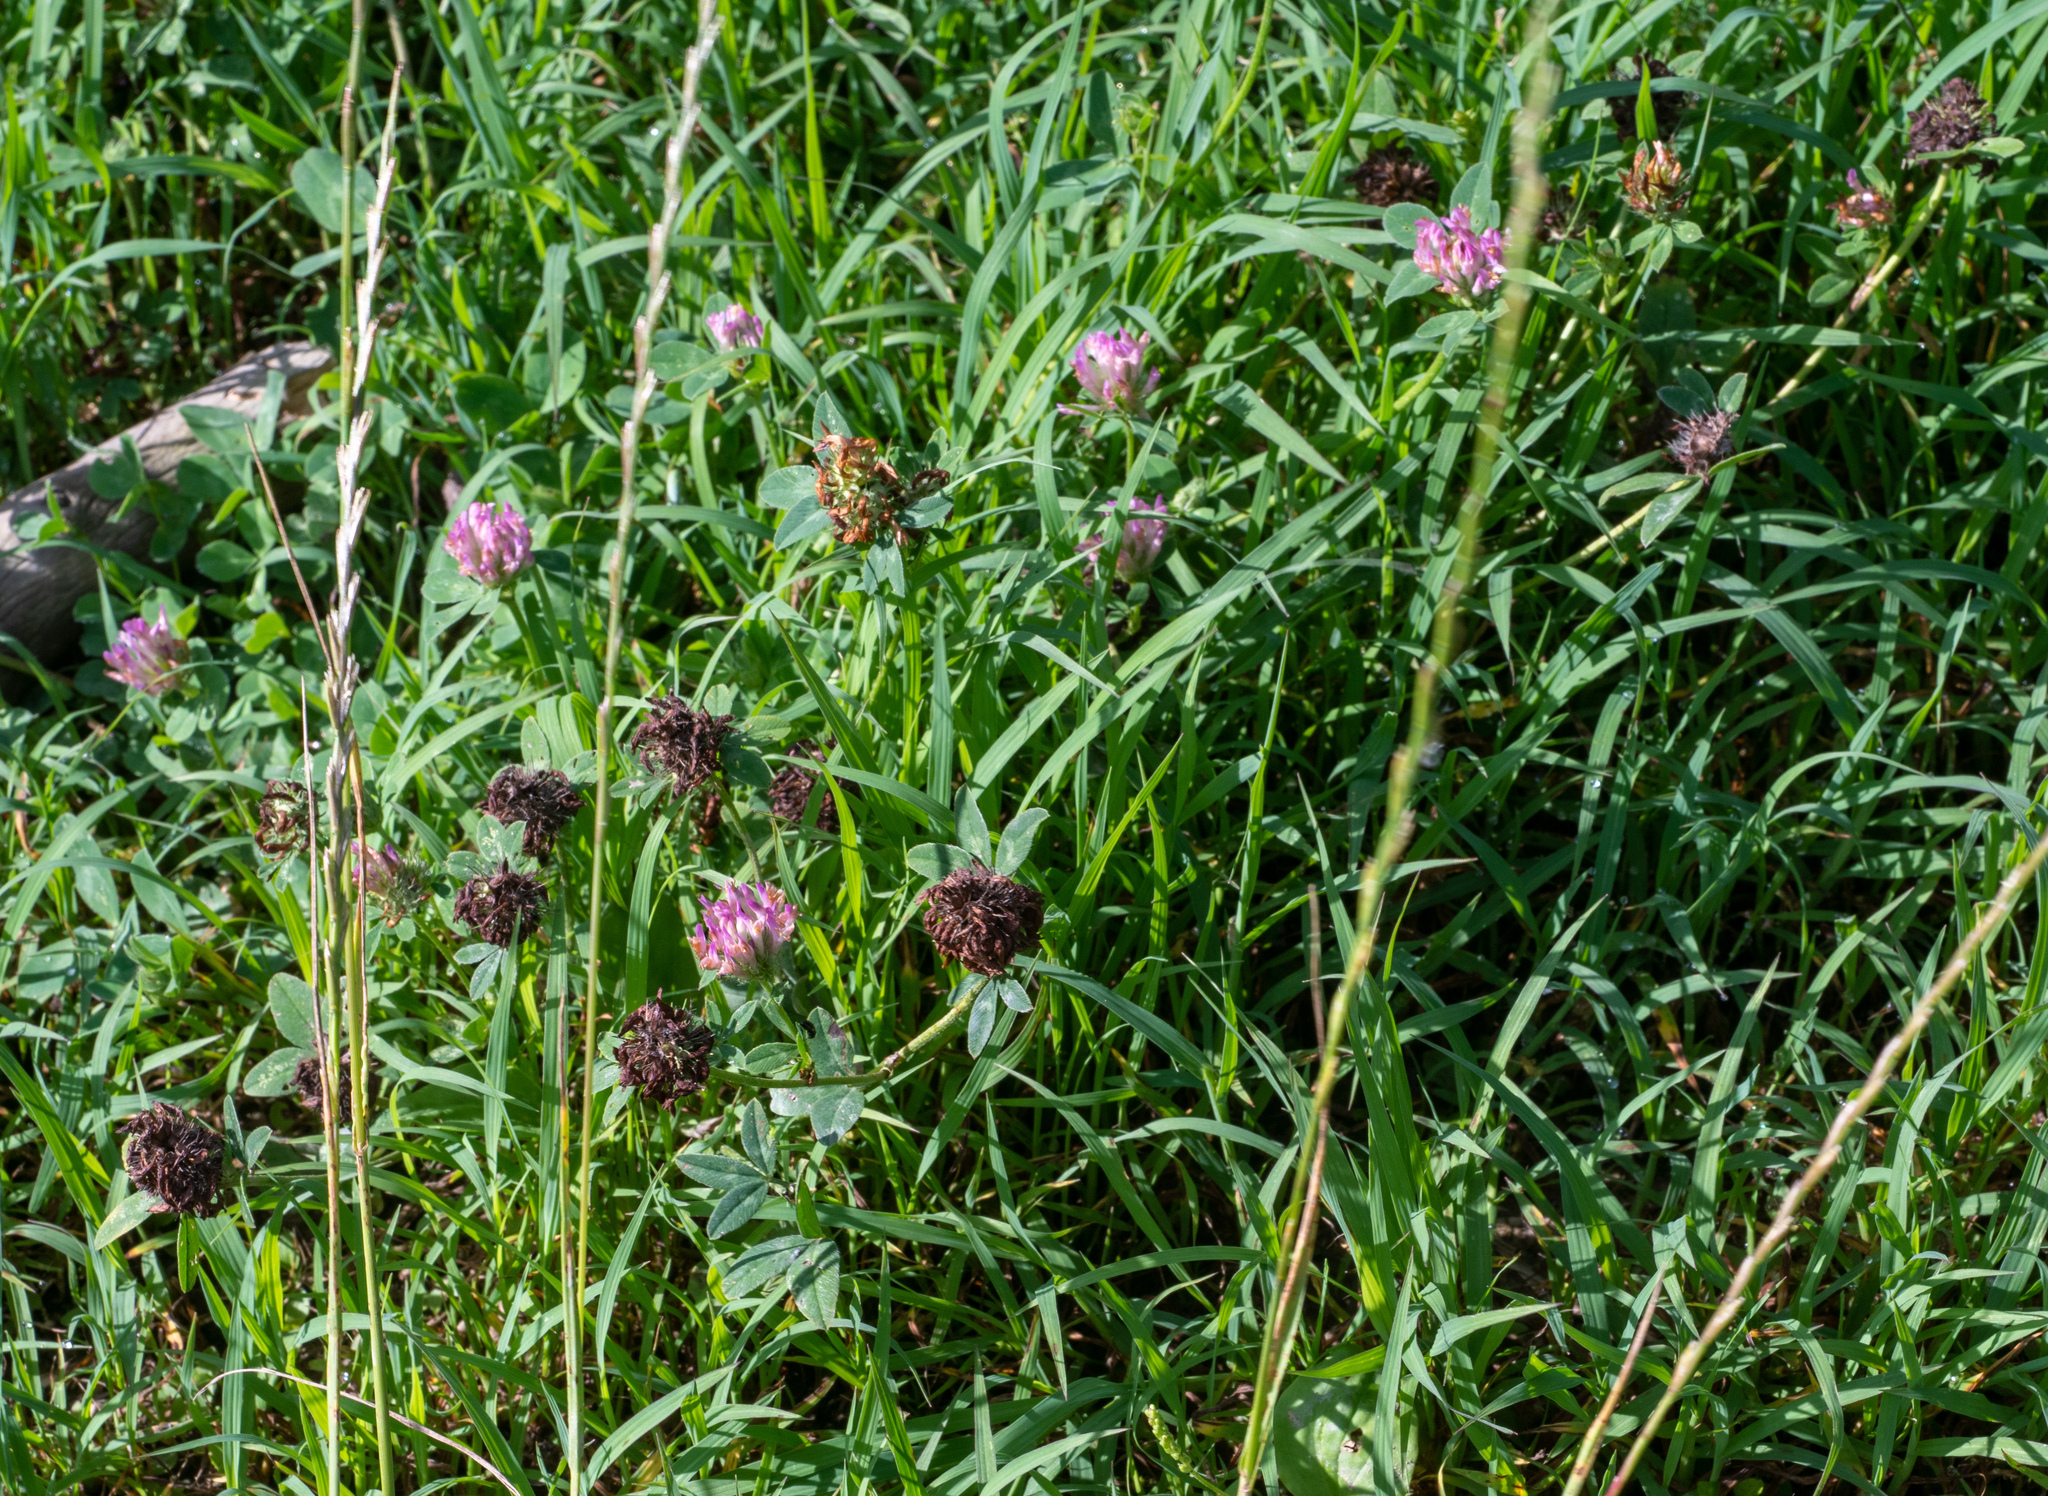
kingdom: Plantae
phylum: Tracheophyta
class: Magnoliopsida
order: Fabales
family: Fabaceae
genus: Trifolium
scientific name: Trifolium pratense
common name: Red clover
